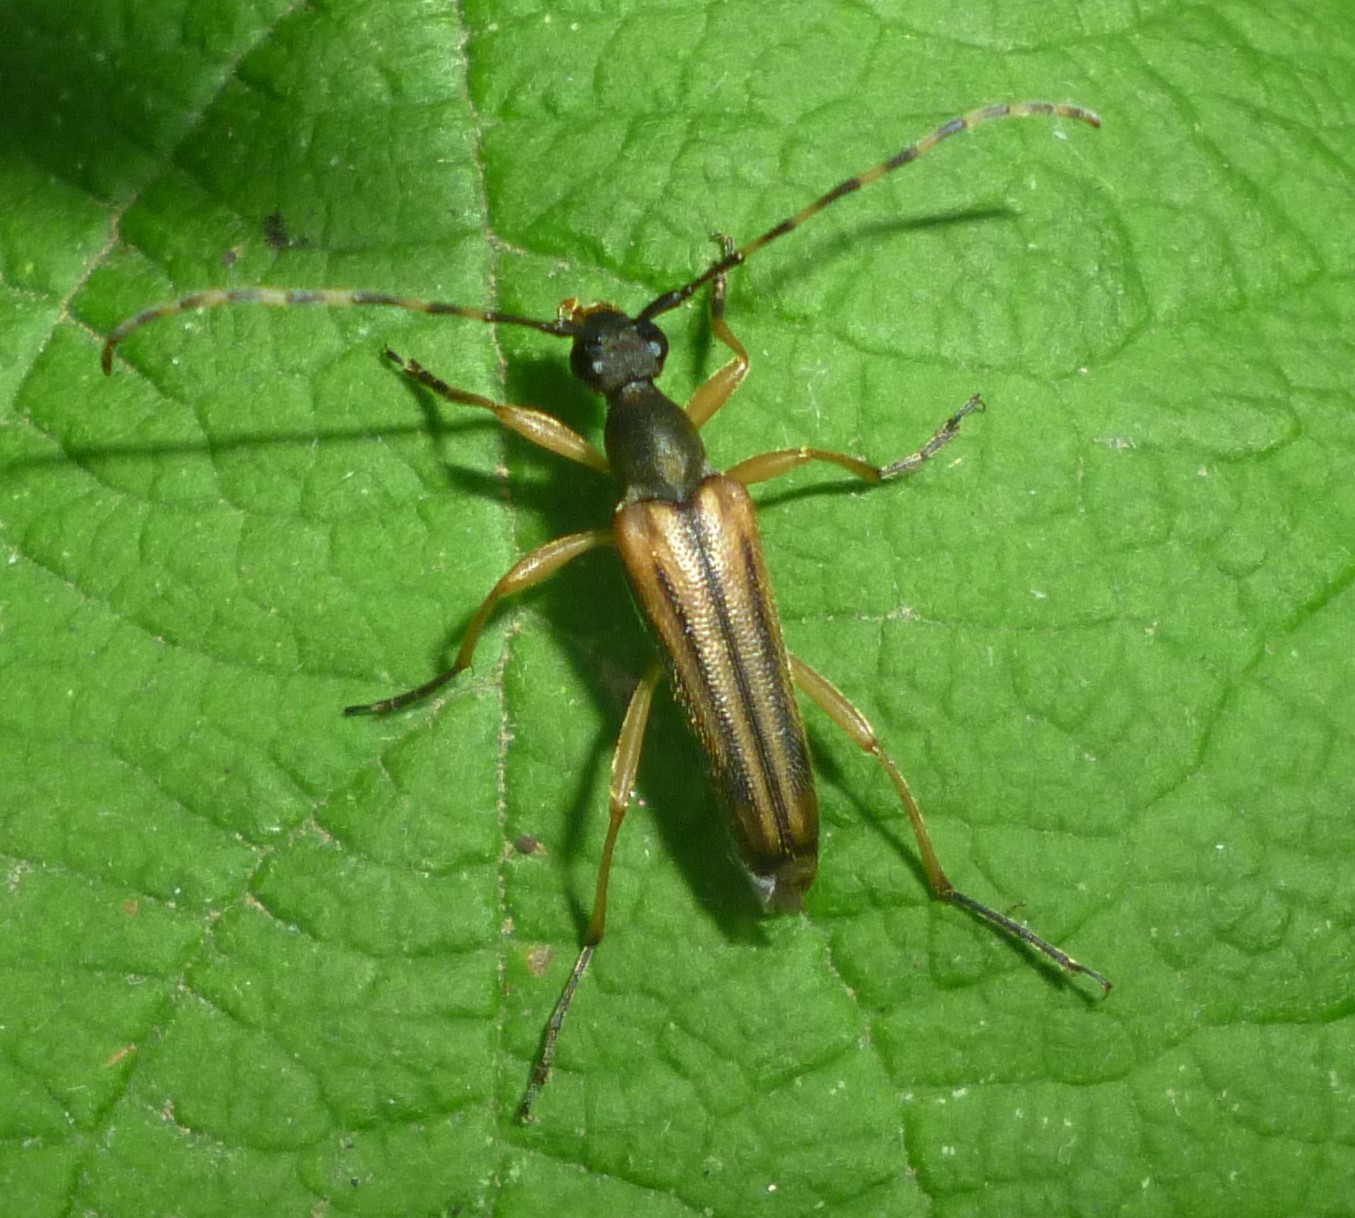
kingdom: Animalia
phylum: Arthropoda
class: Insecta
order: Coleoptera
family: Cerambycidae
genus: Analeptura
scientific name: Analeptura lineola
